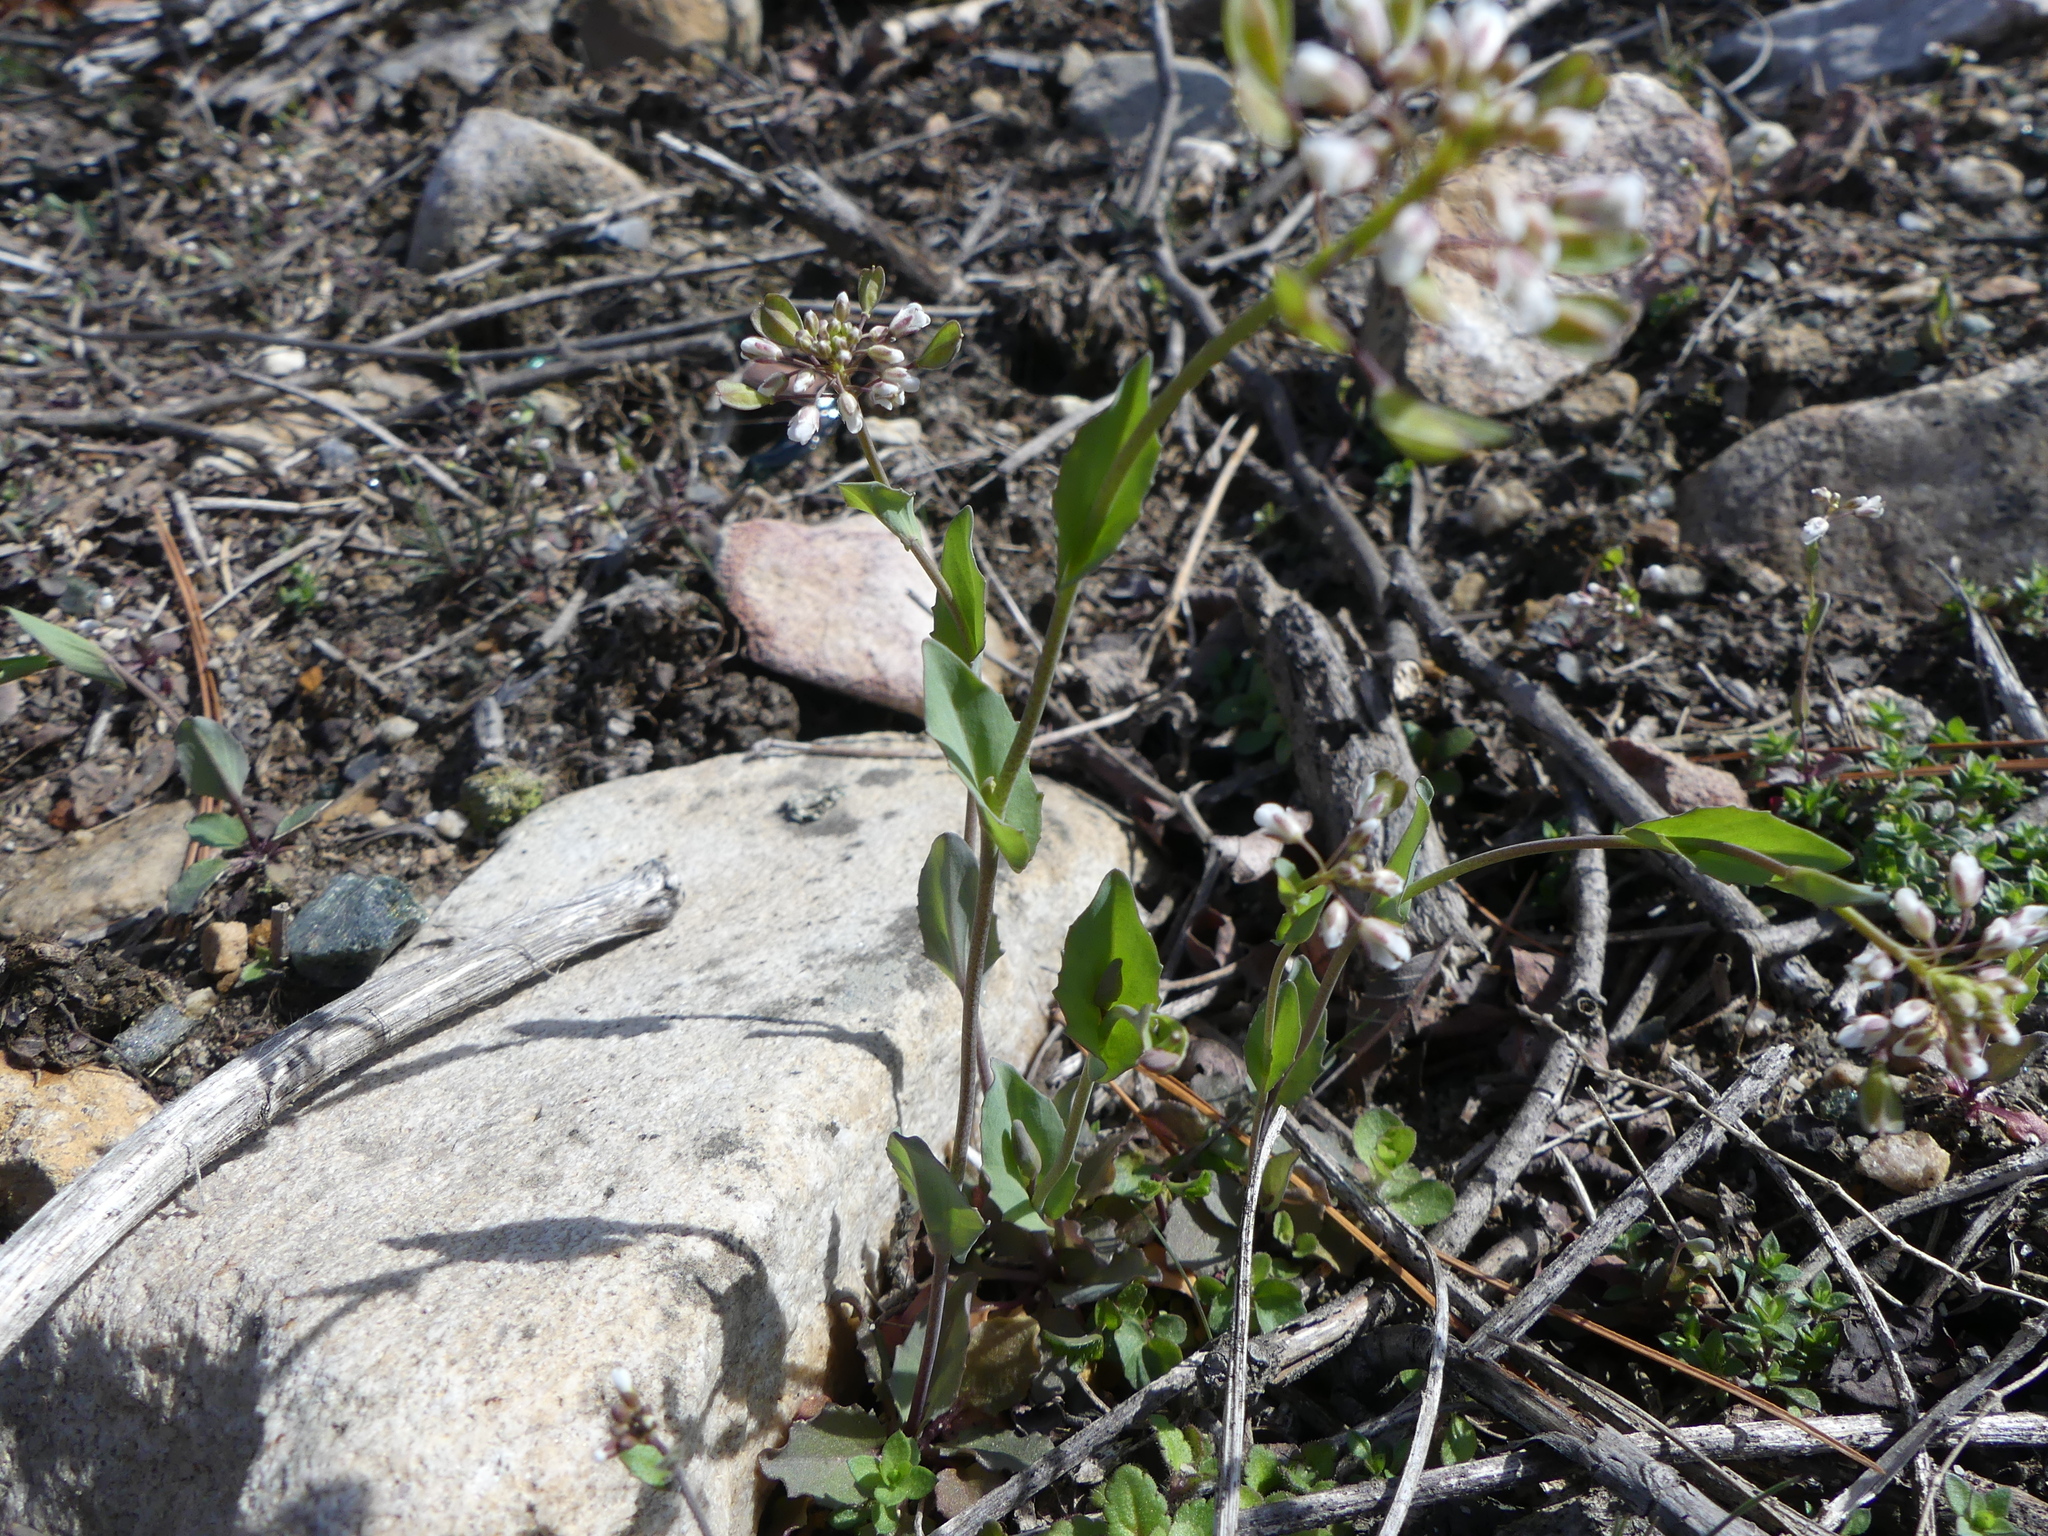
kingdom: Plantae
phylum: Tracheophyta
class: Magnoliopsida
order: Brassicales
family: Brassicaceae
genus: Noccaea
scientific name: Noccaea perfoliata
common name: Perfoliate pennycress
